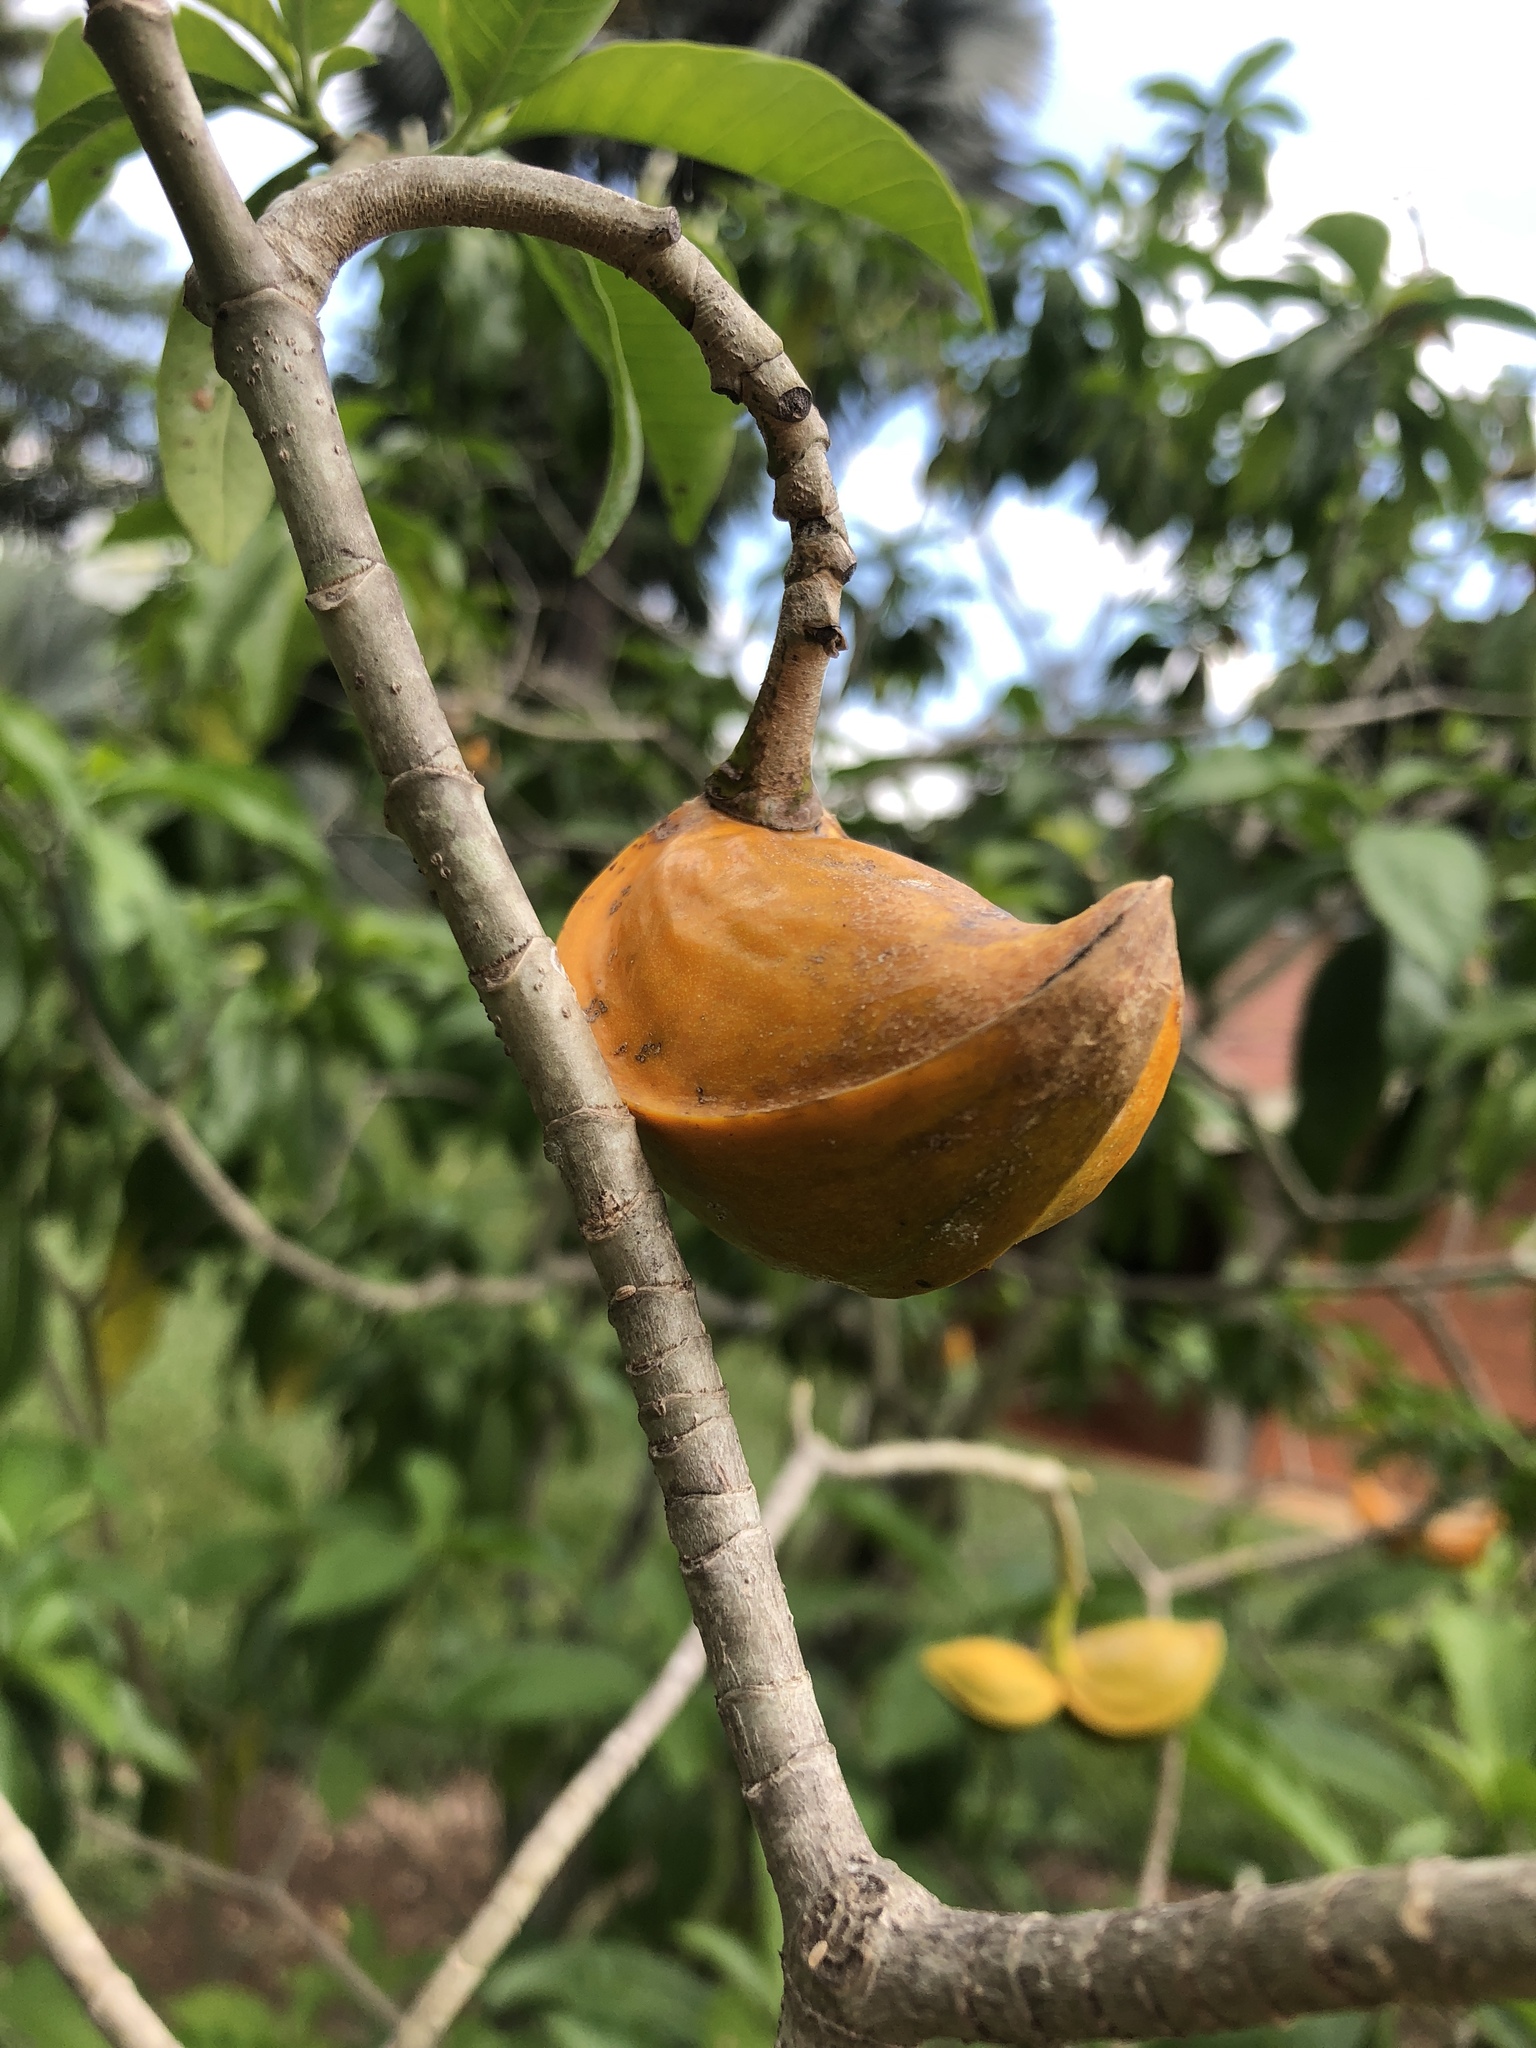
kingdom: Plantae
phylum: Tracheophyta
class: Magnoliopsida
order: Gentianales
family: Apocynaceae
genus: Tabernaemontana
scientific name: Tabernaemontana litoralis
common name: Milkwood
